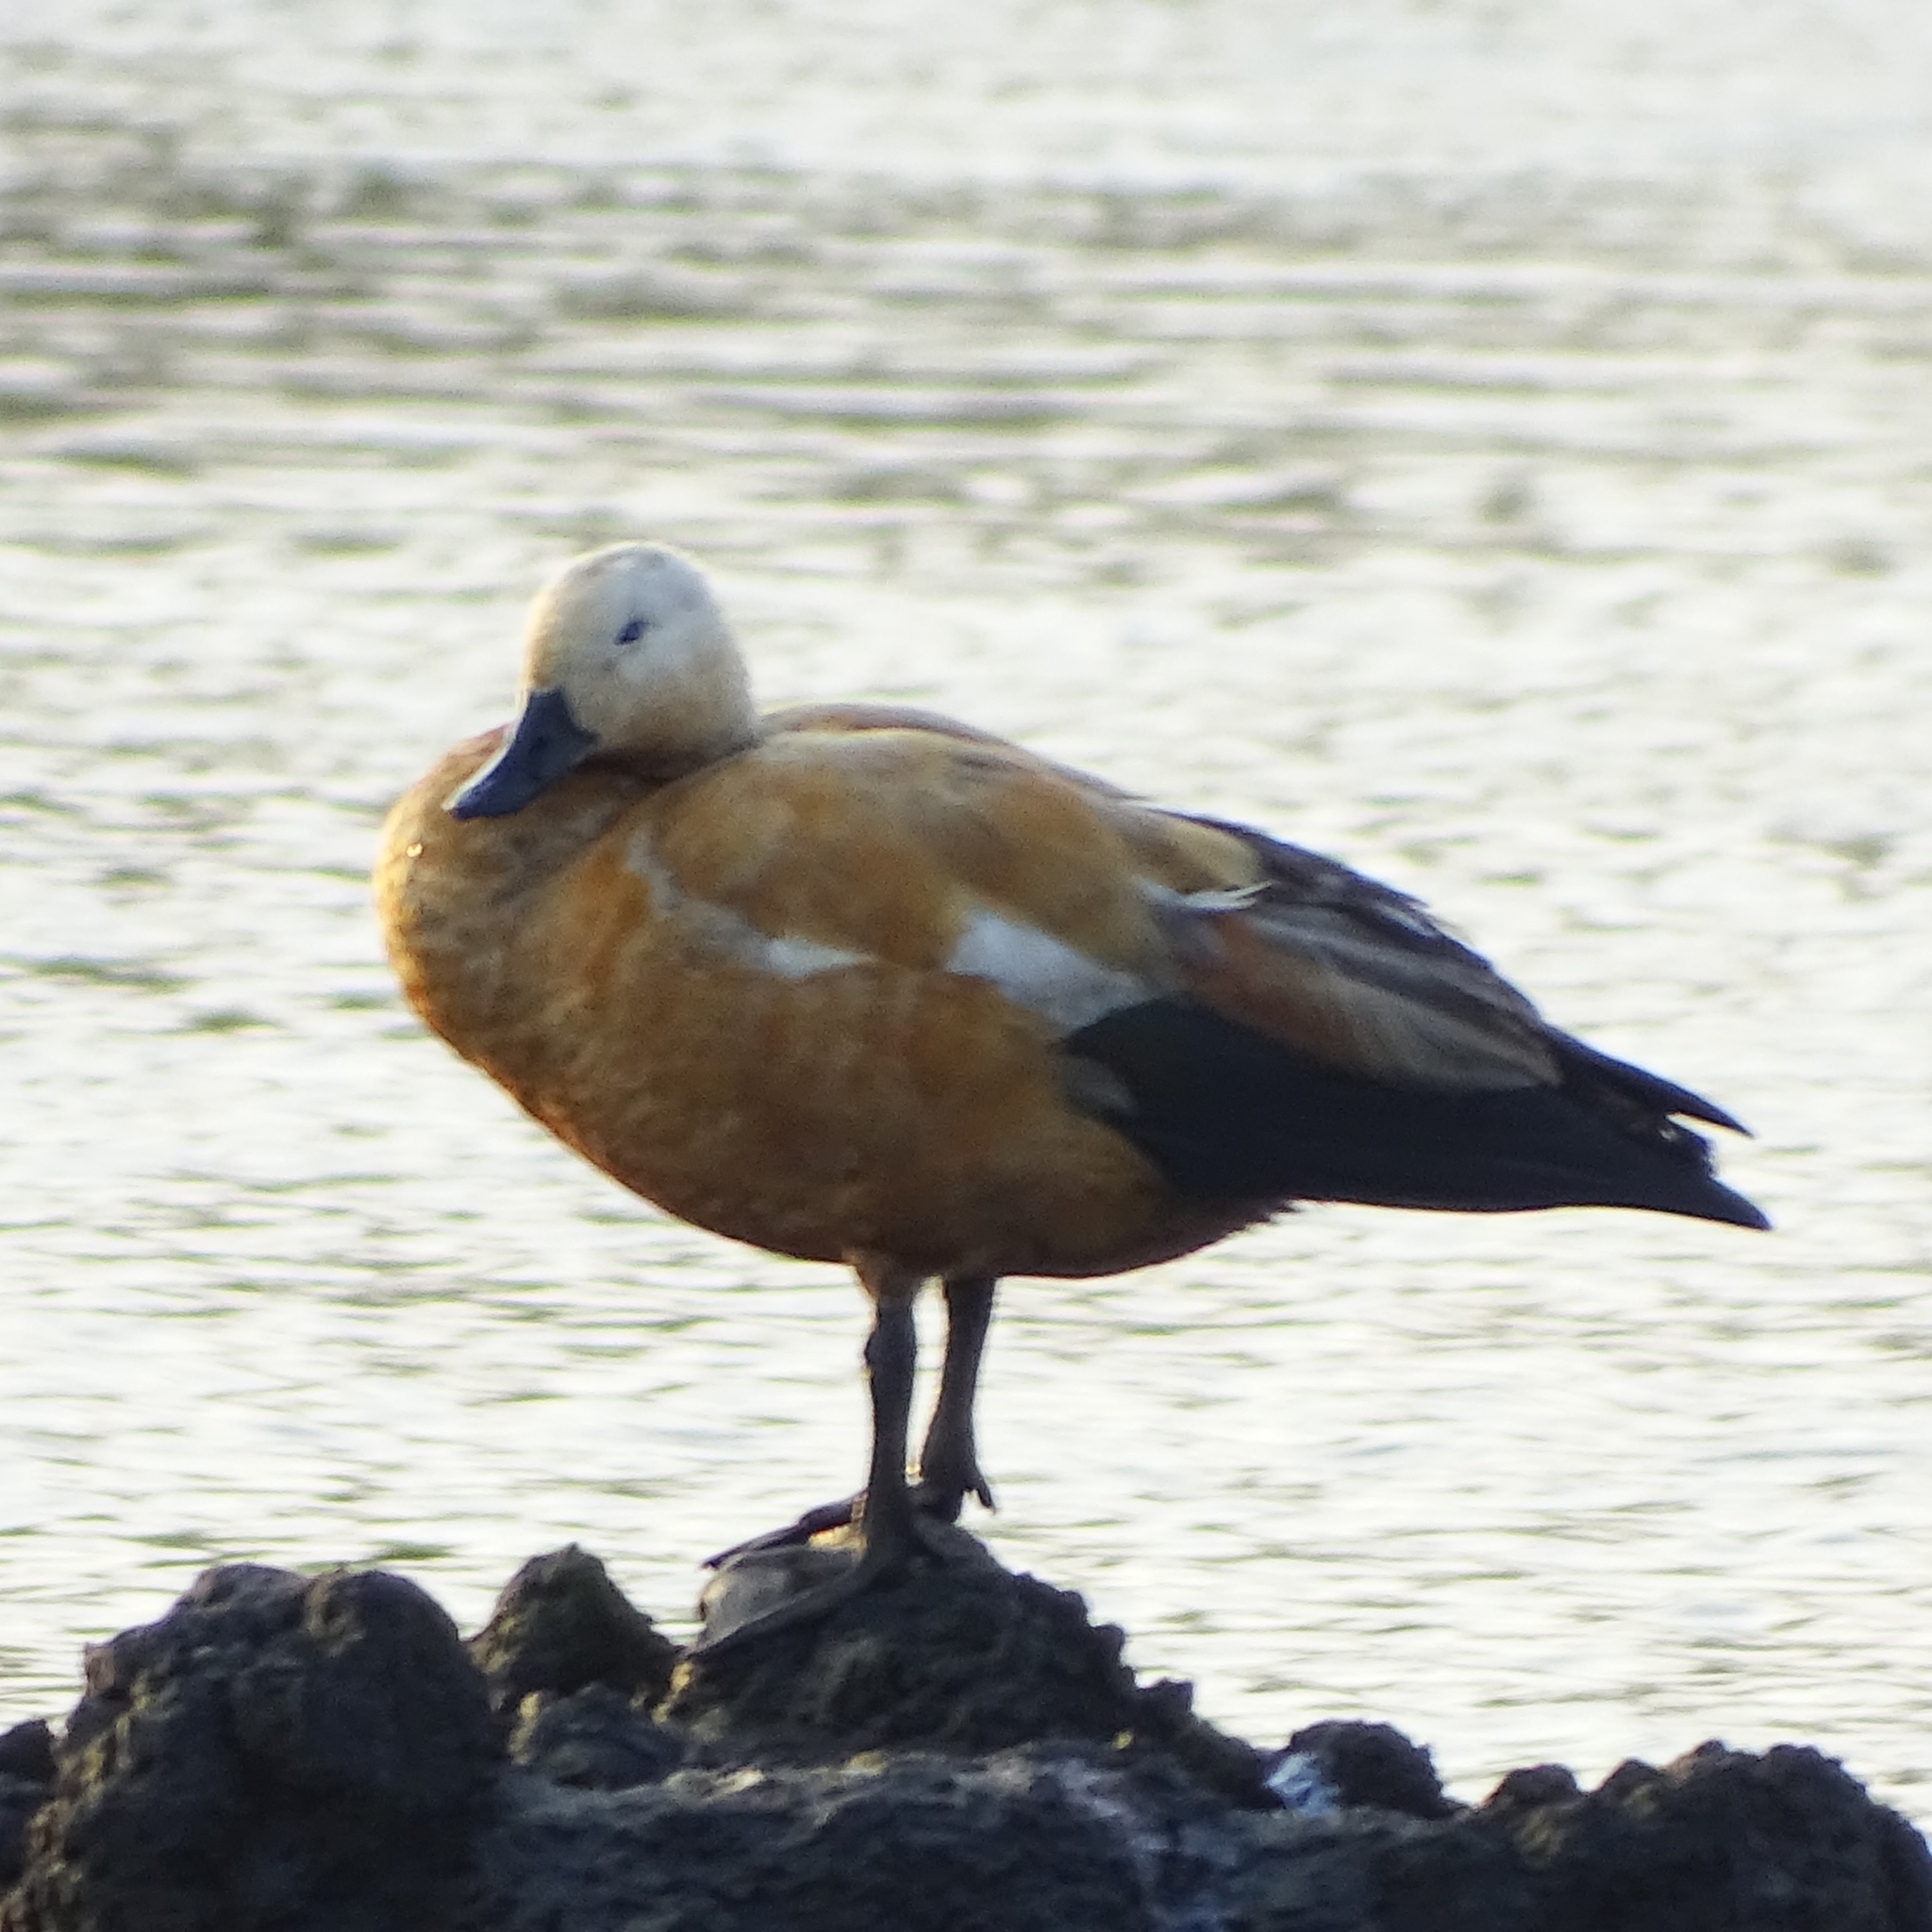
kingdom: Animalia
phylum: Chordata
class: Aves
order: Anseriformes
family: Anatidae
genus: Tadorna
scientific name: Tadorna ferruginea
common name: Ruddy shelduck
